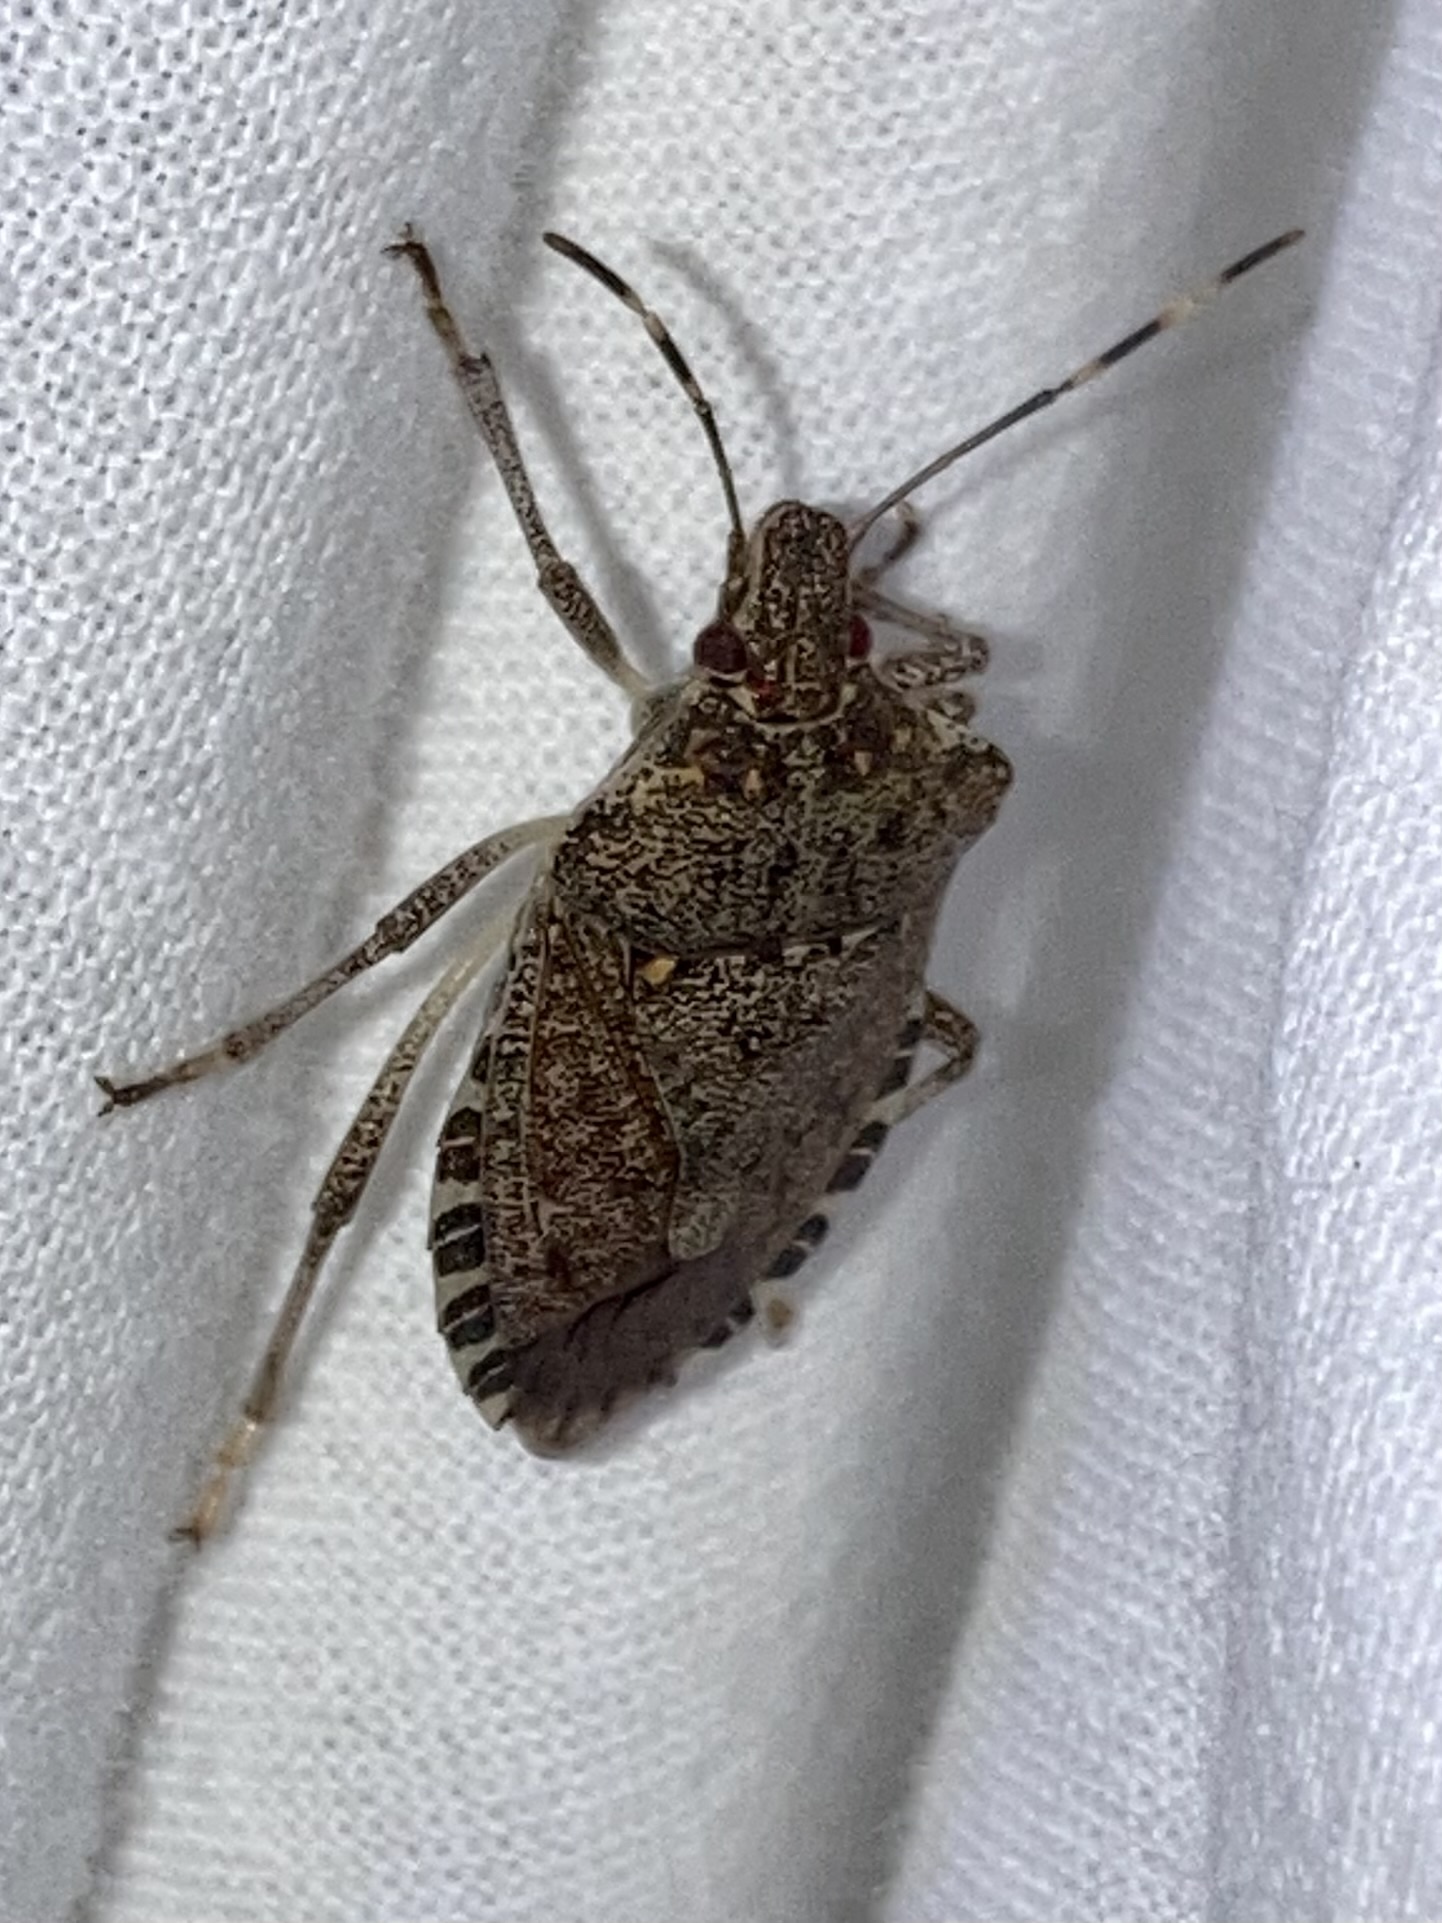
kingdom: Animalia
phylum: Arthropoda
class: Insecta
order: Hemiptera
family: Pentatomidae
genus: Halyomorpha
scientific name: Halyomorpha halys
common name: Brown marmorated stink bug
